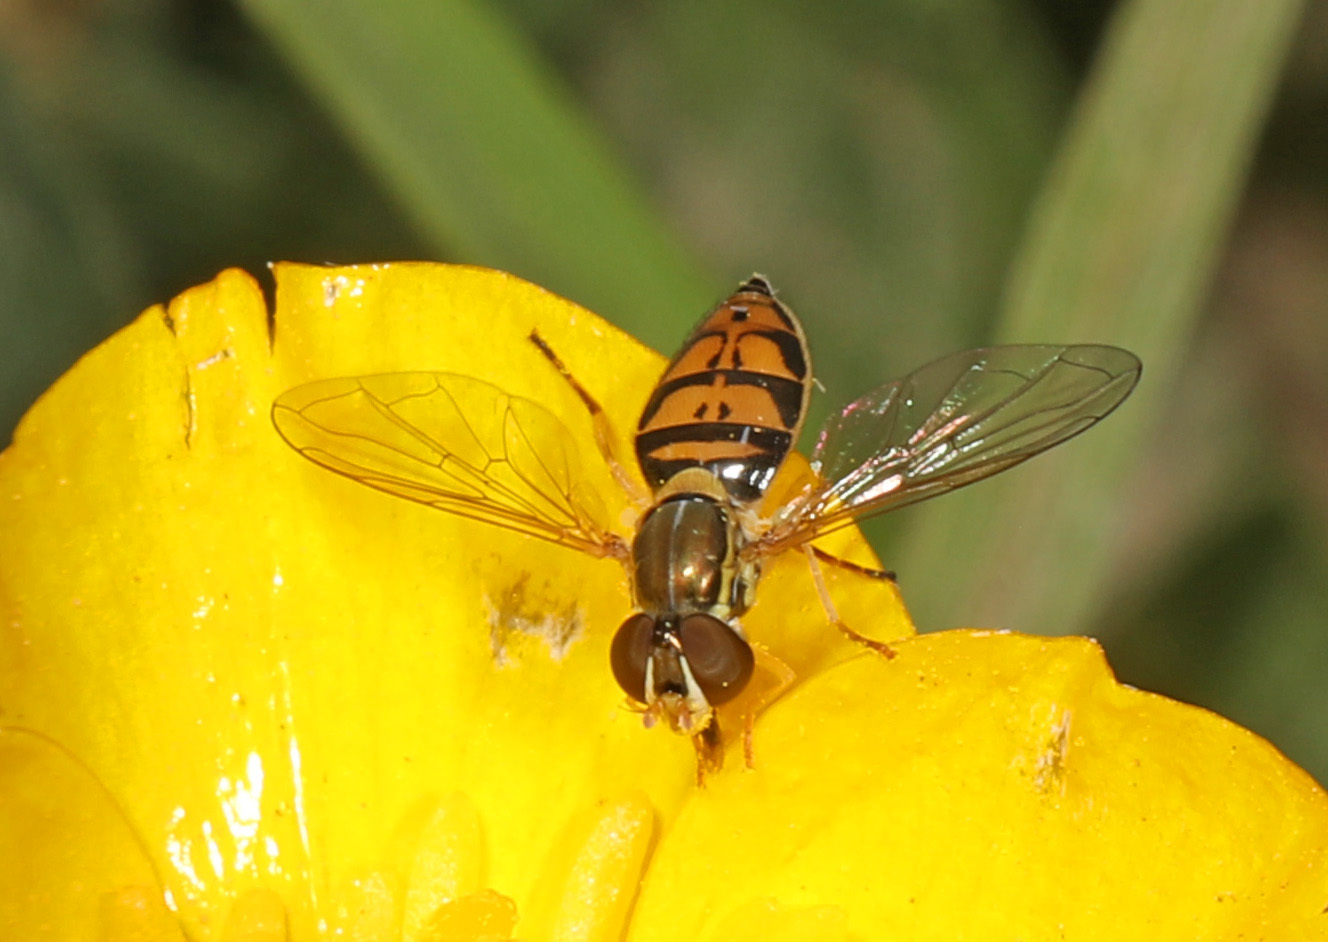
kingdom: Animalia
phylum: Arthropoda
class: Insecta
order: Diptera
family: Syrphidae
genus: Toxomerus
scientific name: Toxomerus marginatus
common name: Syrphid fly
